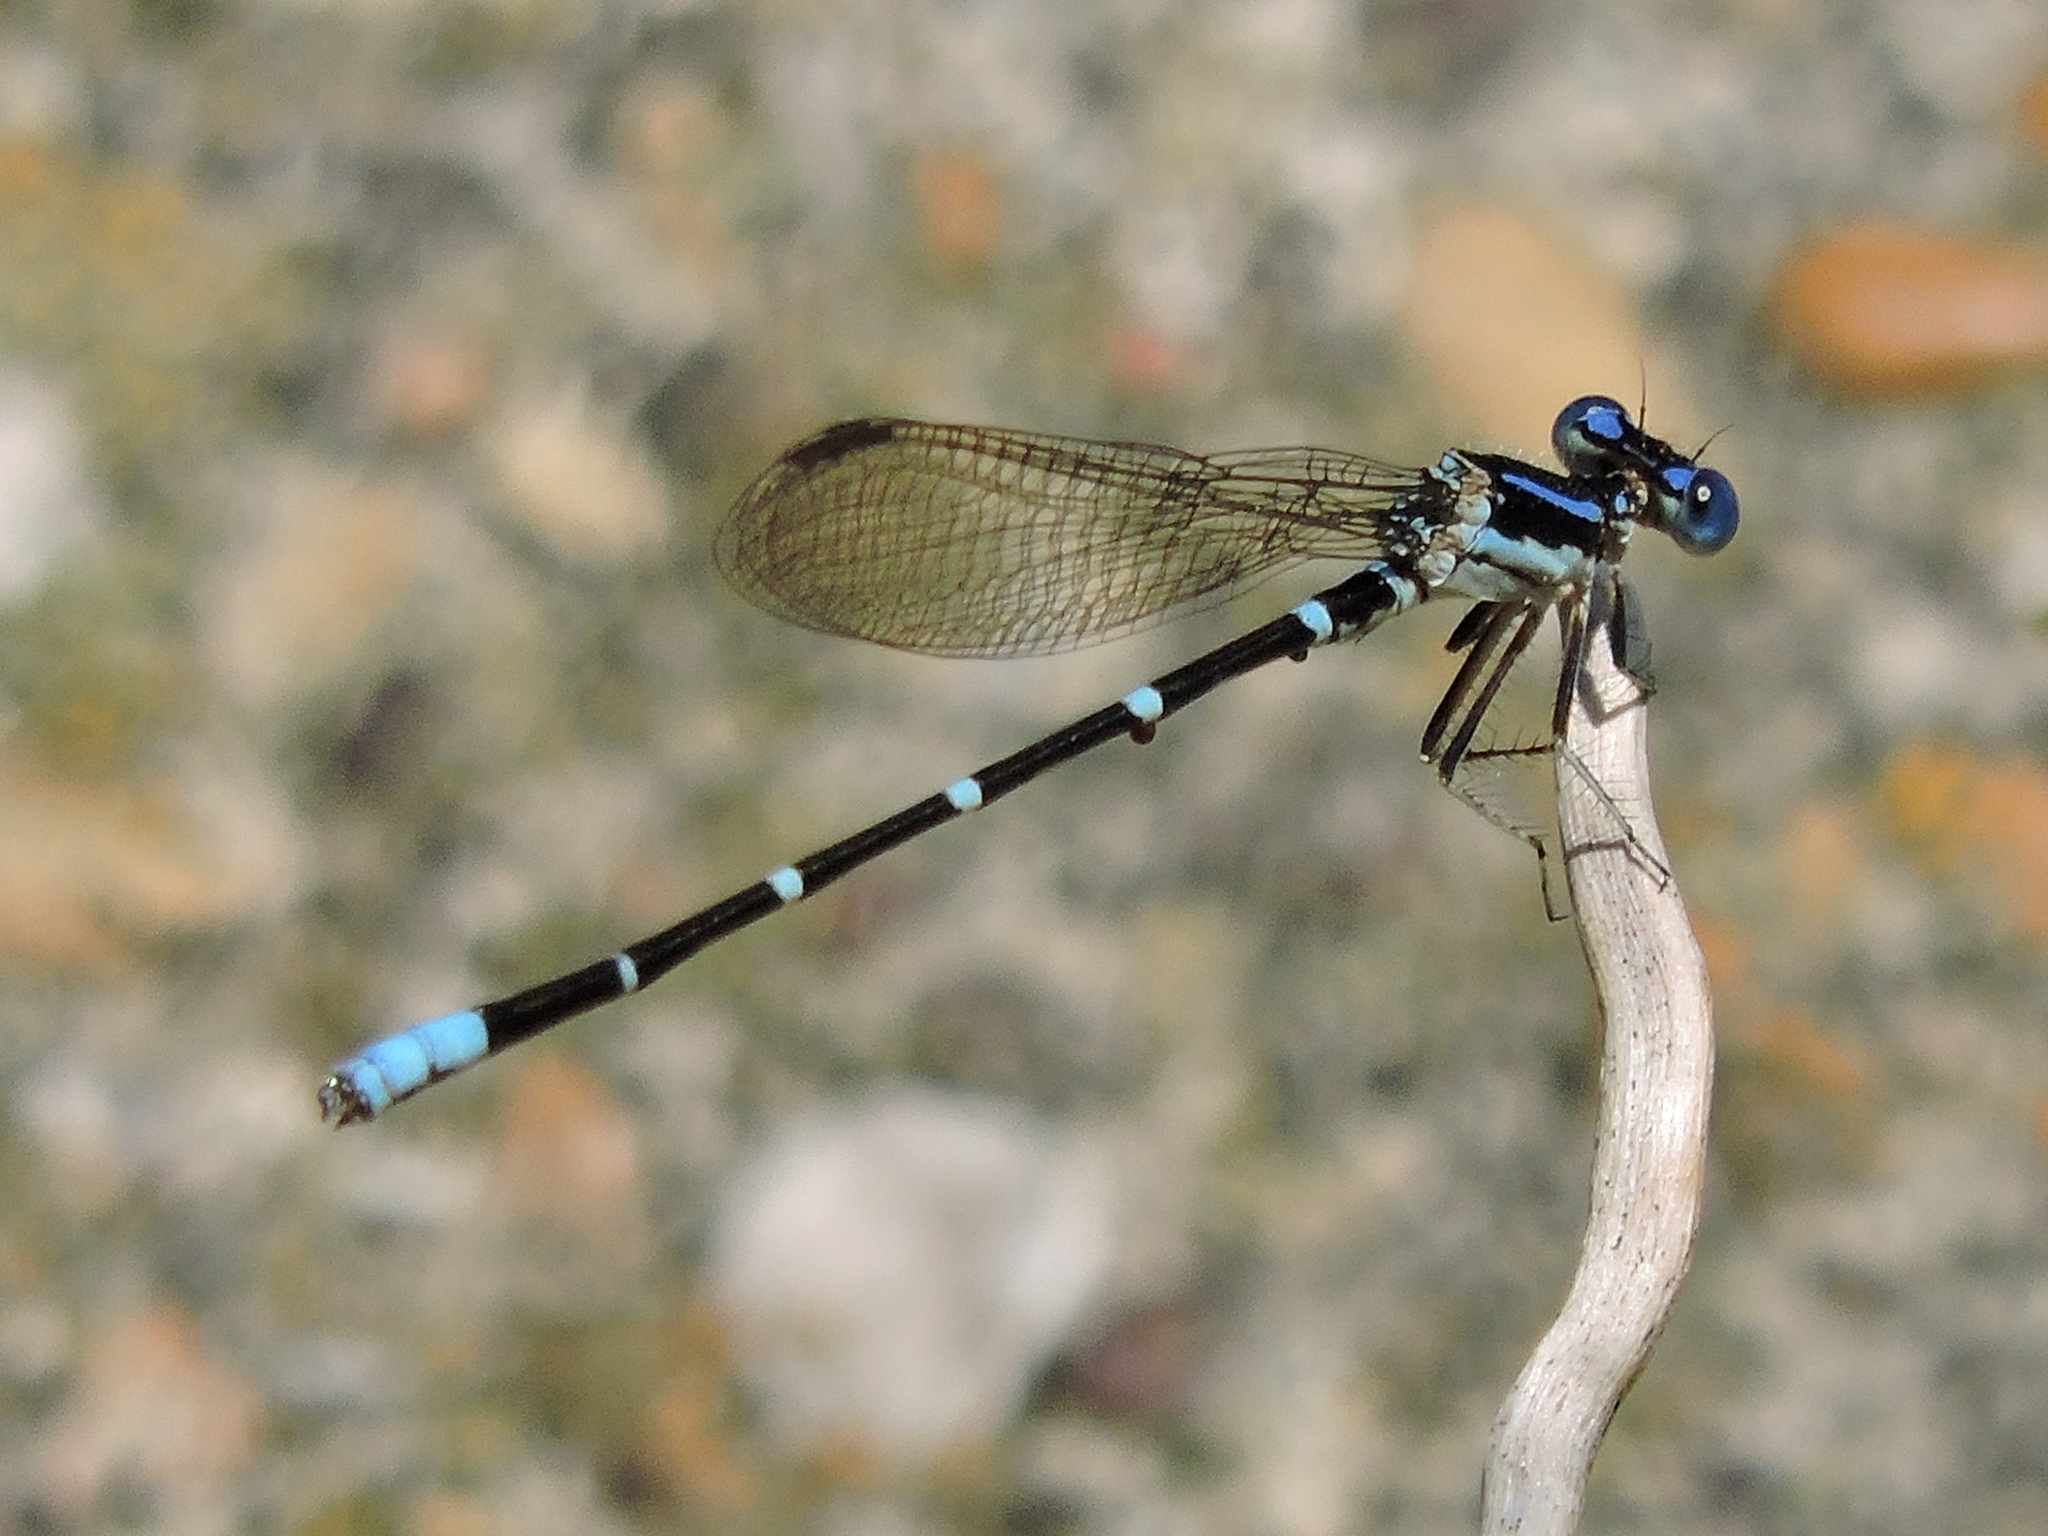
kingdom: Animalia
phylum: Arthropoda
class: Insecta
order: Odonata
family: Coenagrionidae
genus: Argia
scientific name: Argia sedula
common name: Blue-ringed dancer
